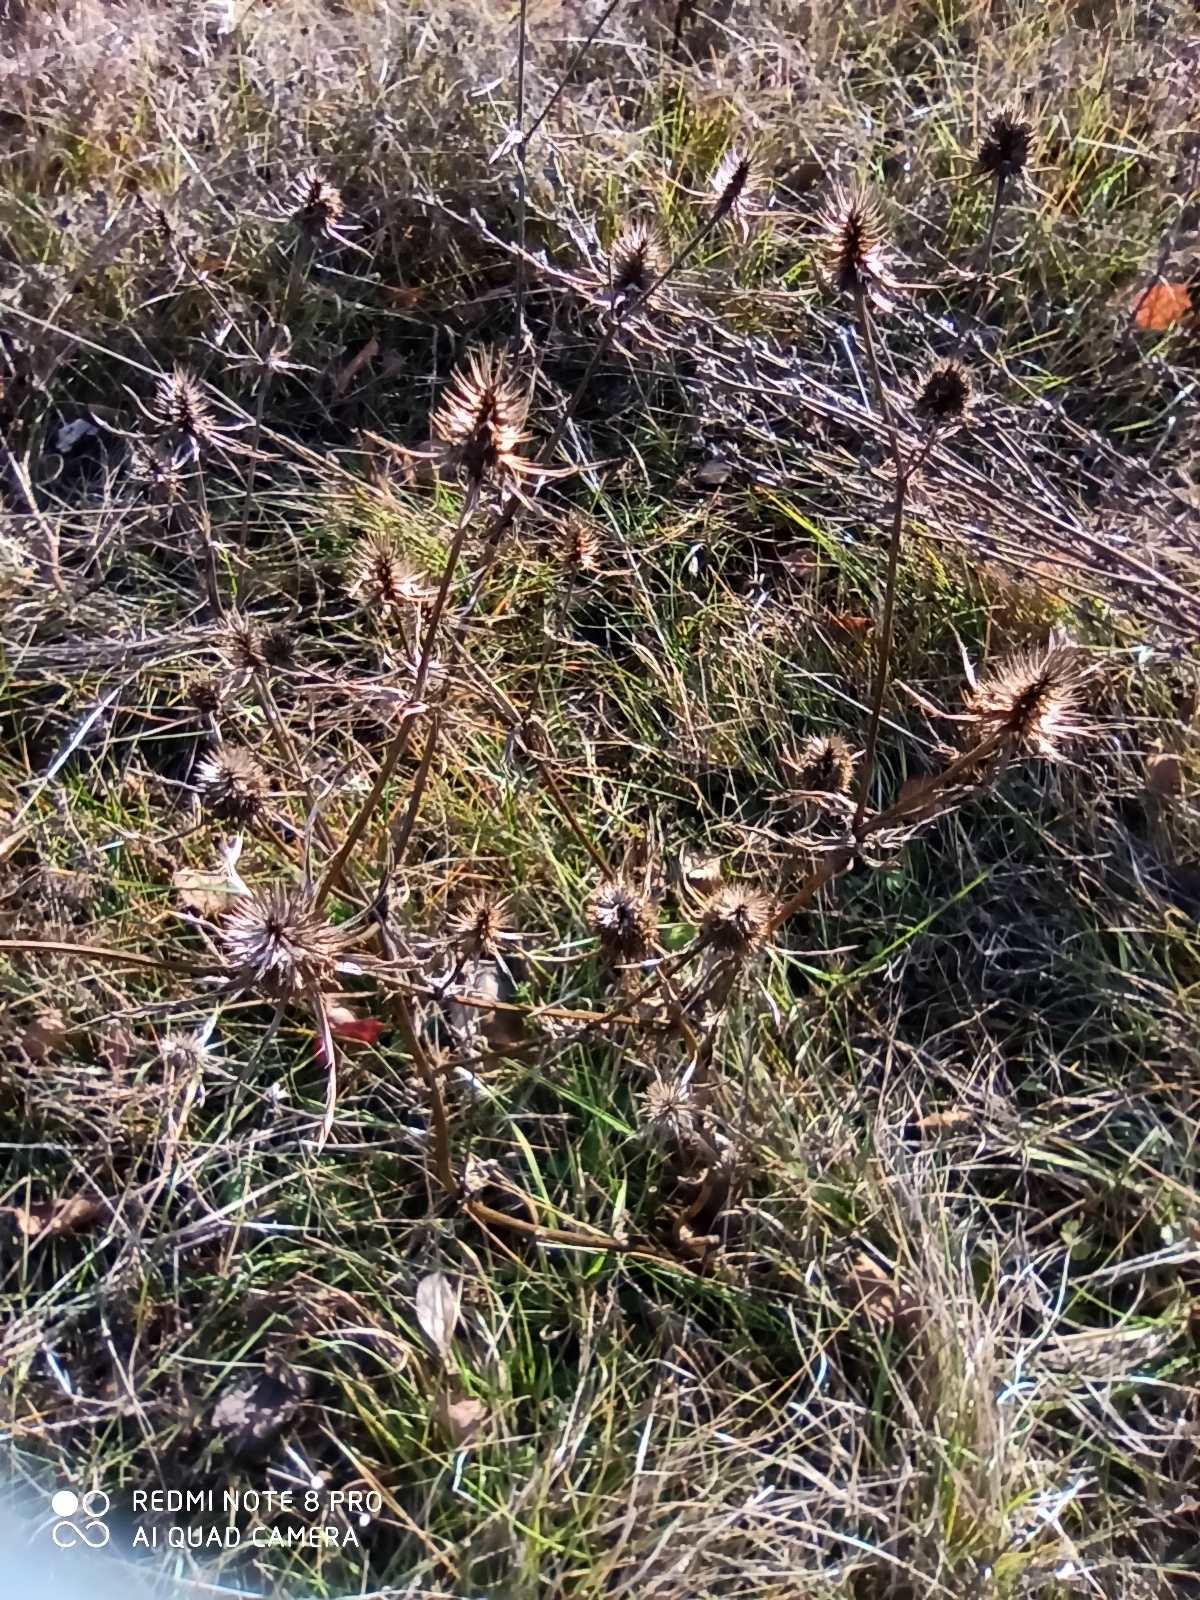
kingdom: Plantae
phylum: Tracheophyta
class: Magnoliopsida
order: Apiales
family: Apiaceae
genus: Eryngium
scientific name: Eryngium planum
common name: Blue eryngo
